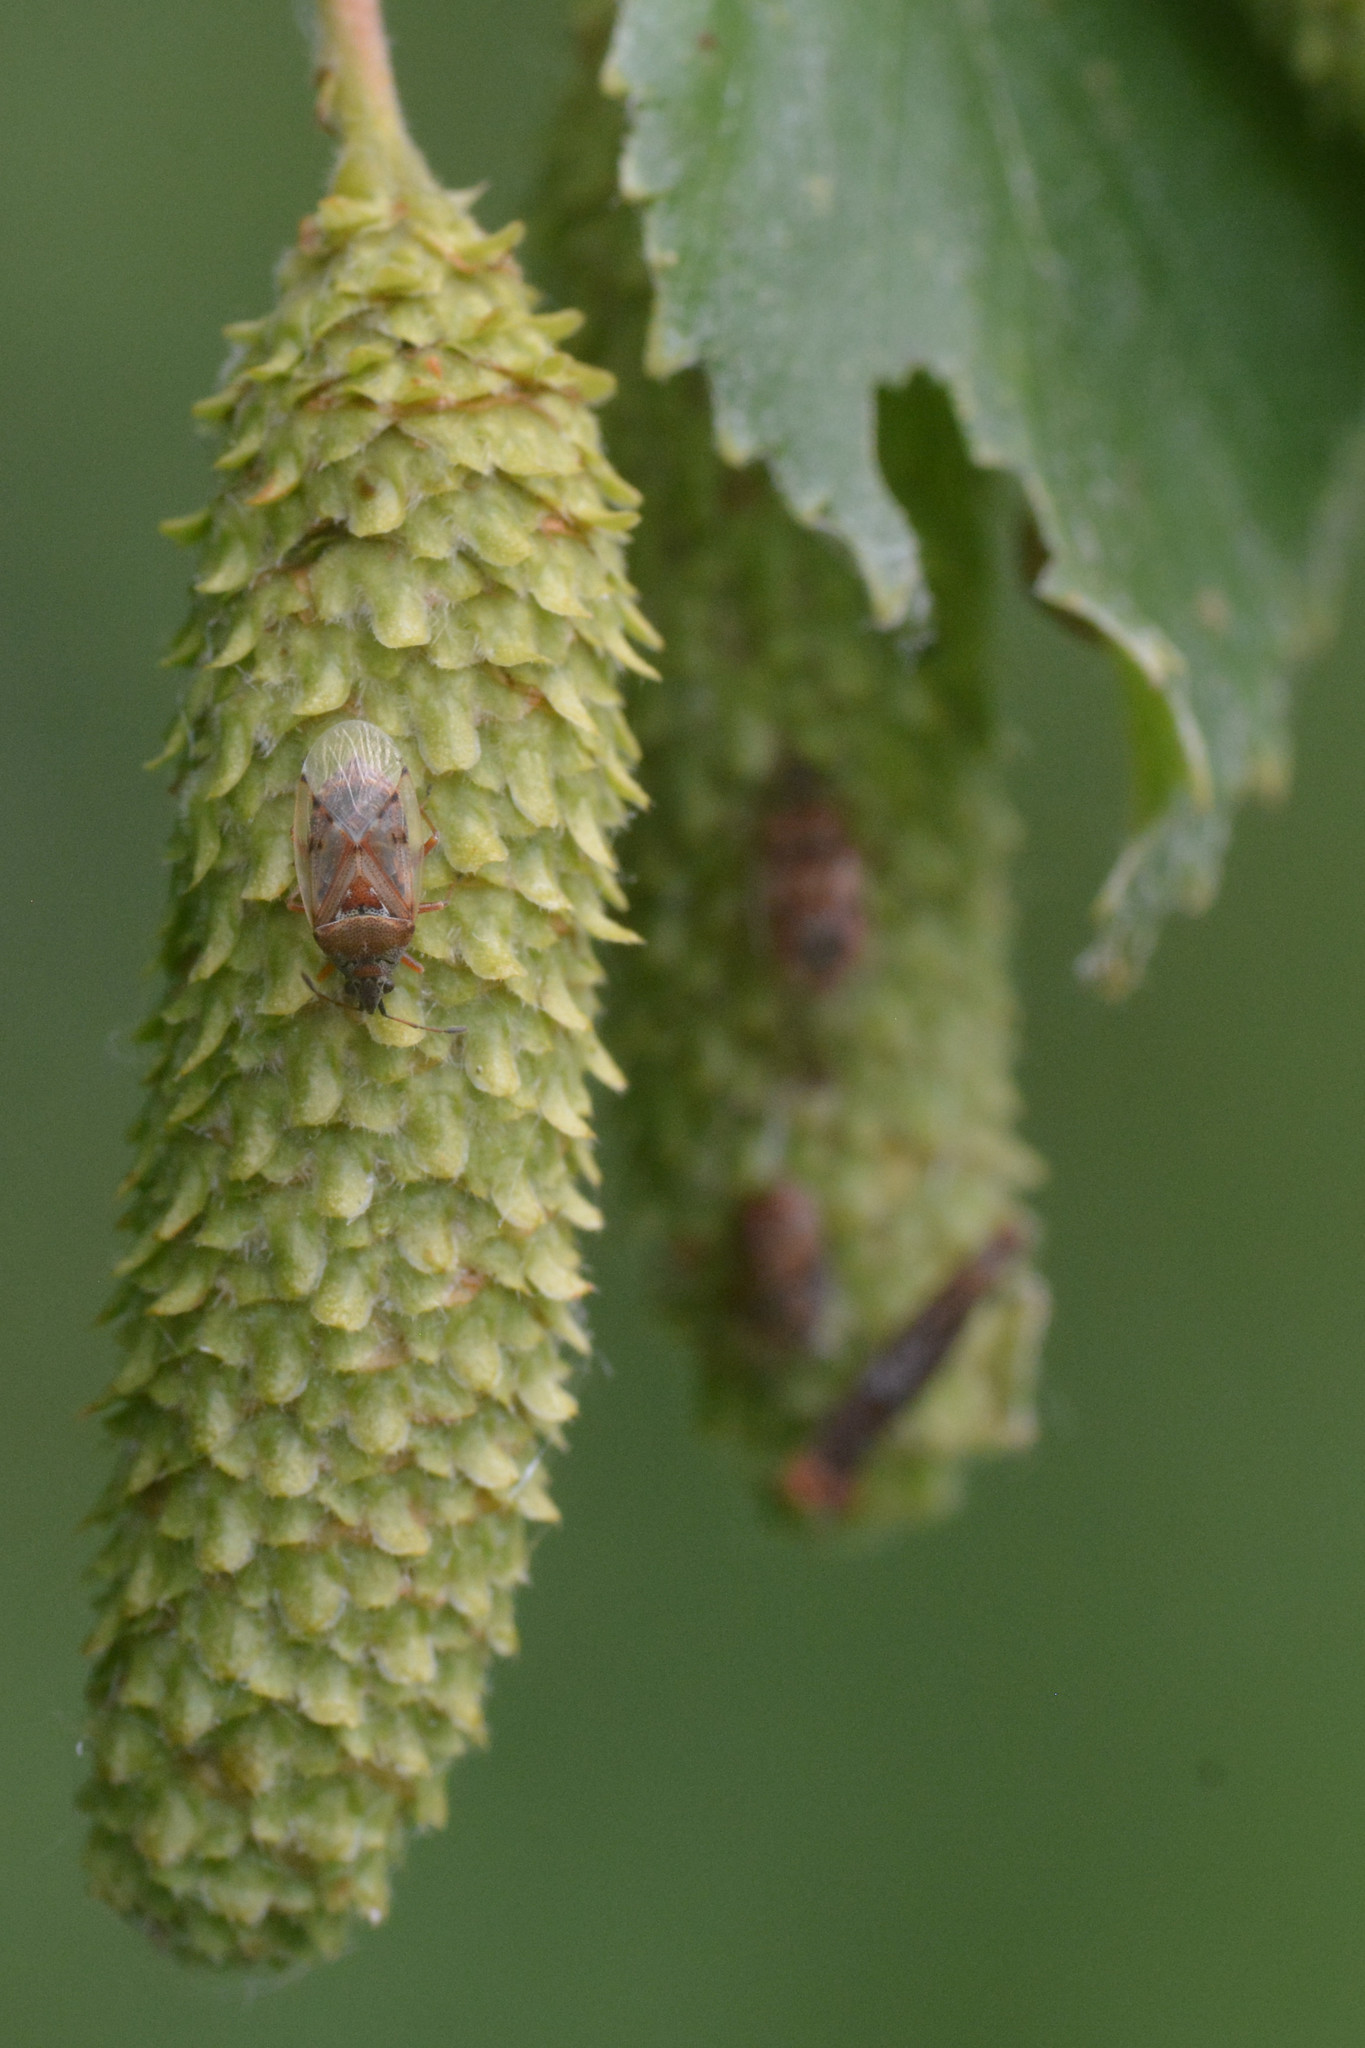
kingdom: Animalia
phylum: Arthropoda
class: Insecta
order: Hemiptera
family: Lygaeidae
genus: Kleidocerys
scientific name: Kleidocerys resedae
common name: Birch catkin bug
